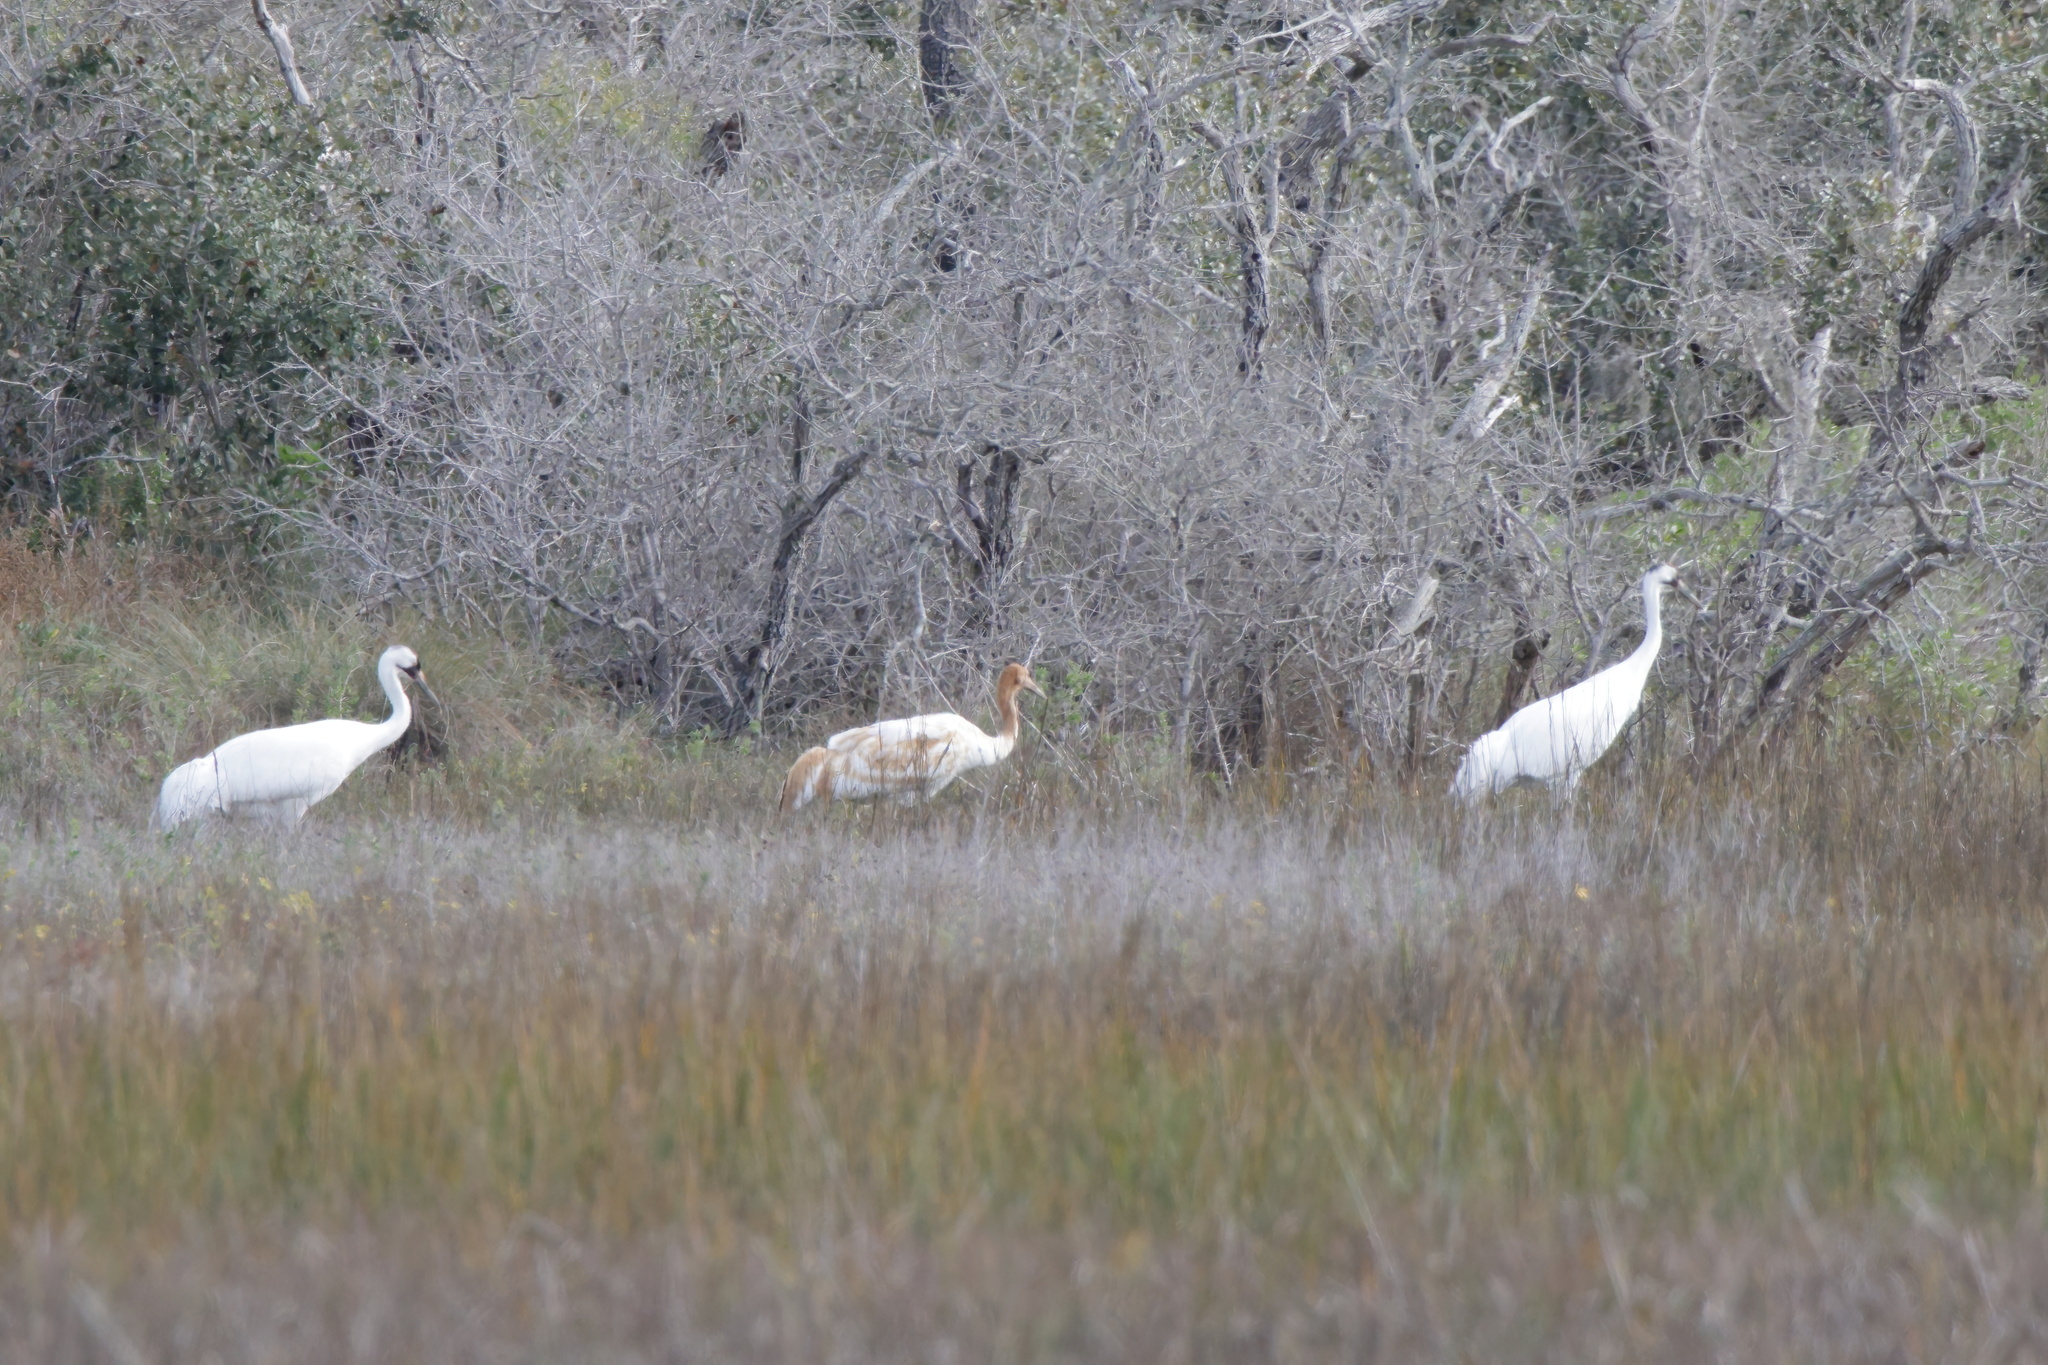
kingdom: Animalia
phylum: Chordata
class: Aves
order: Gruiformes
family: Gruidae
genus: Grus
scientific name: Grus americana
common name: Whooping crane
